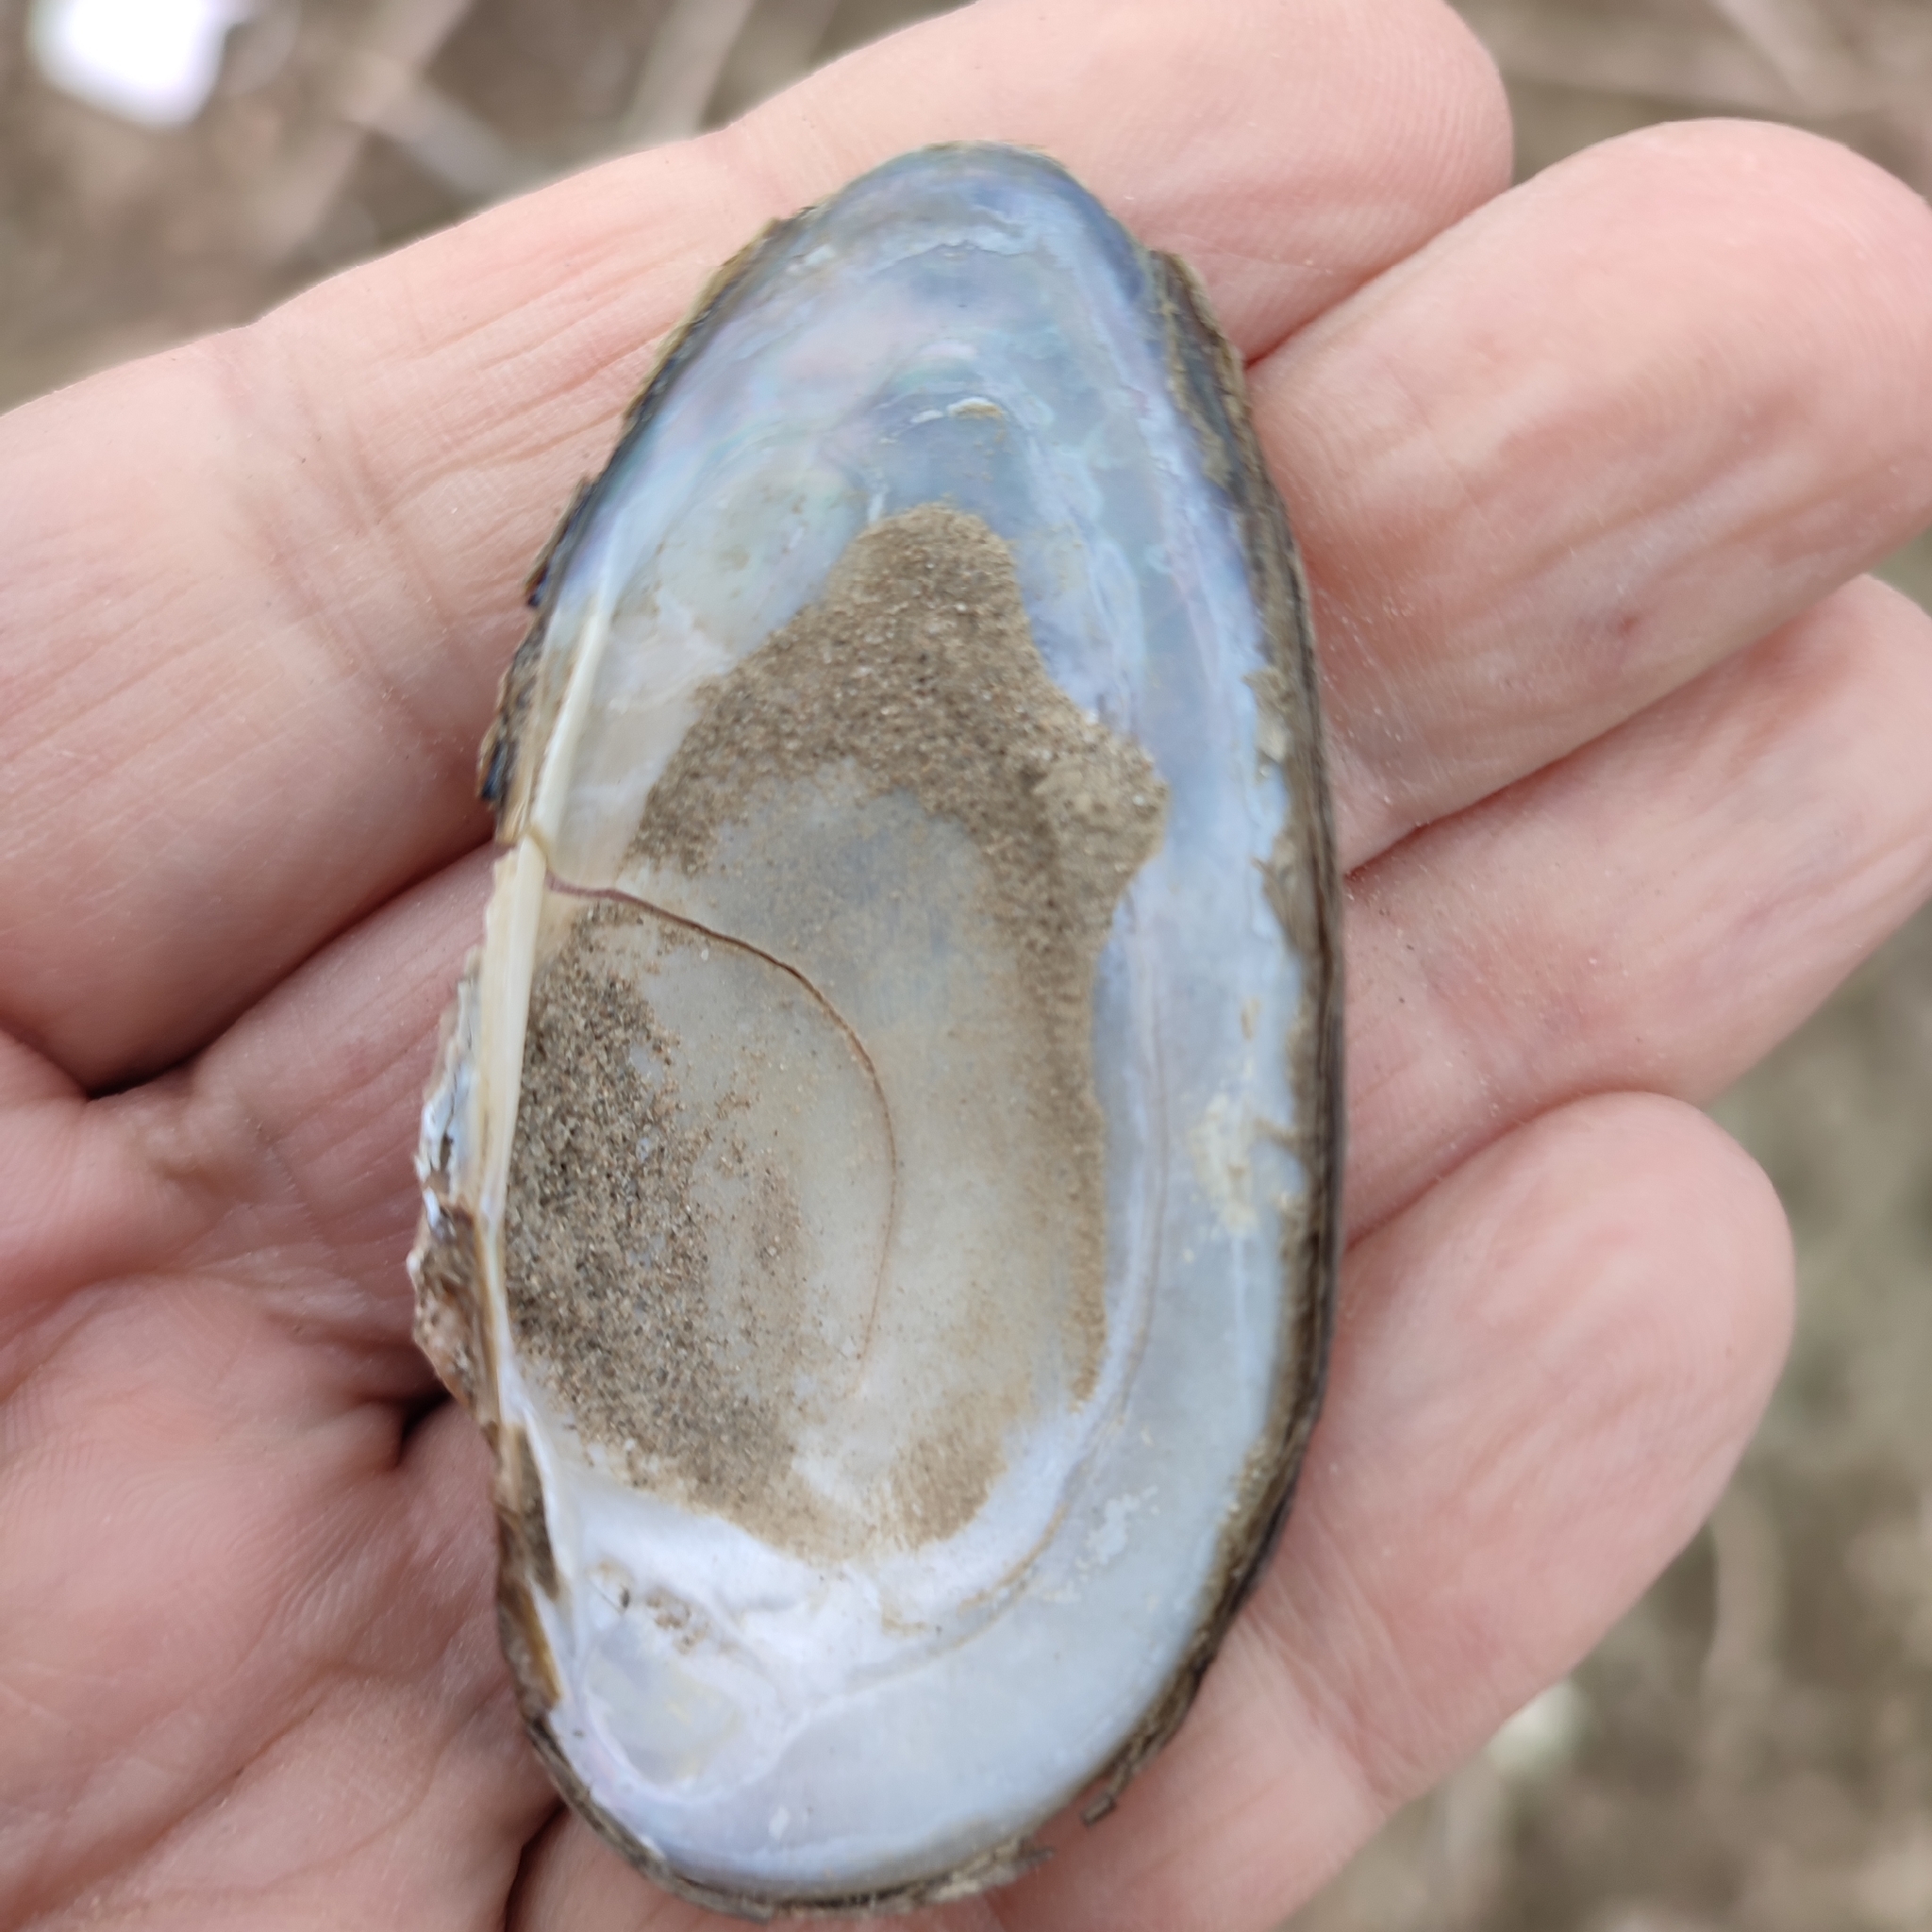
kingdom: Animalia
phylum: Mollusca
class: Bivalvia
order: Unionida
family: Unionidae
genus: Unio
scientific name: Unio tumidus
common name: Swollen river mussel
